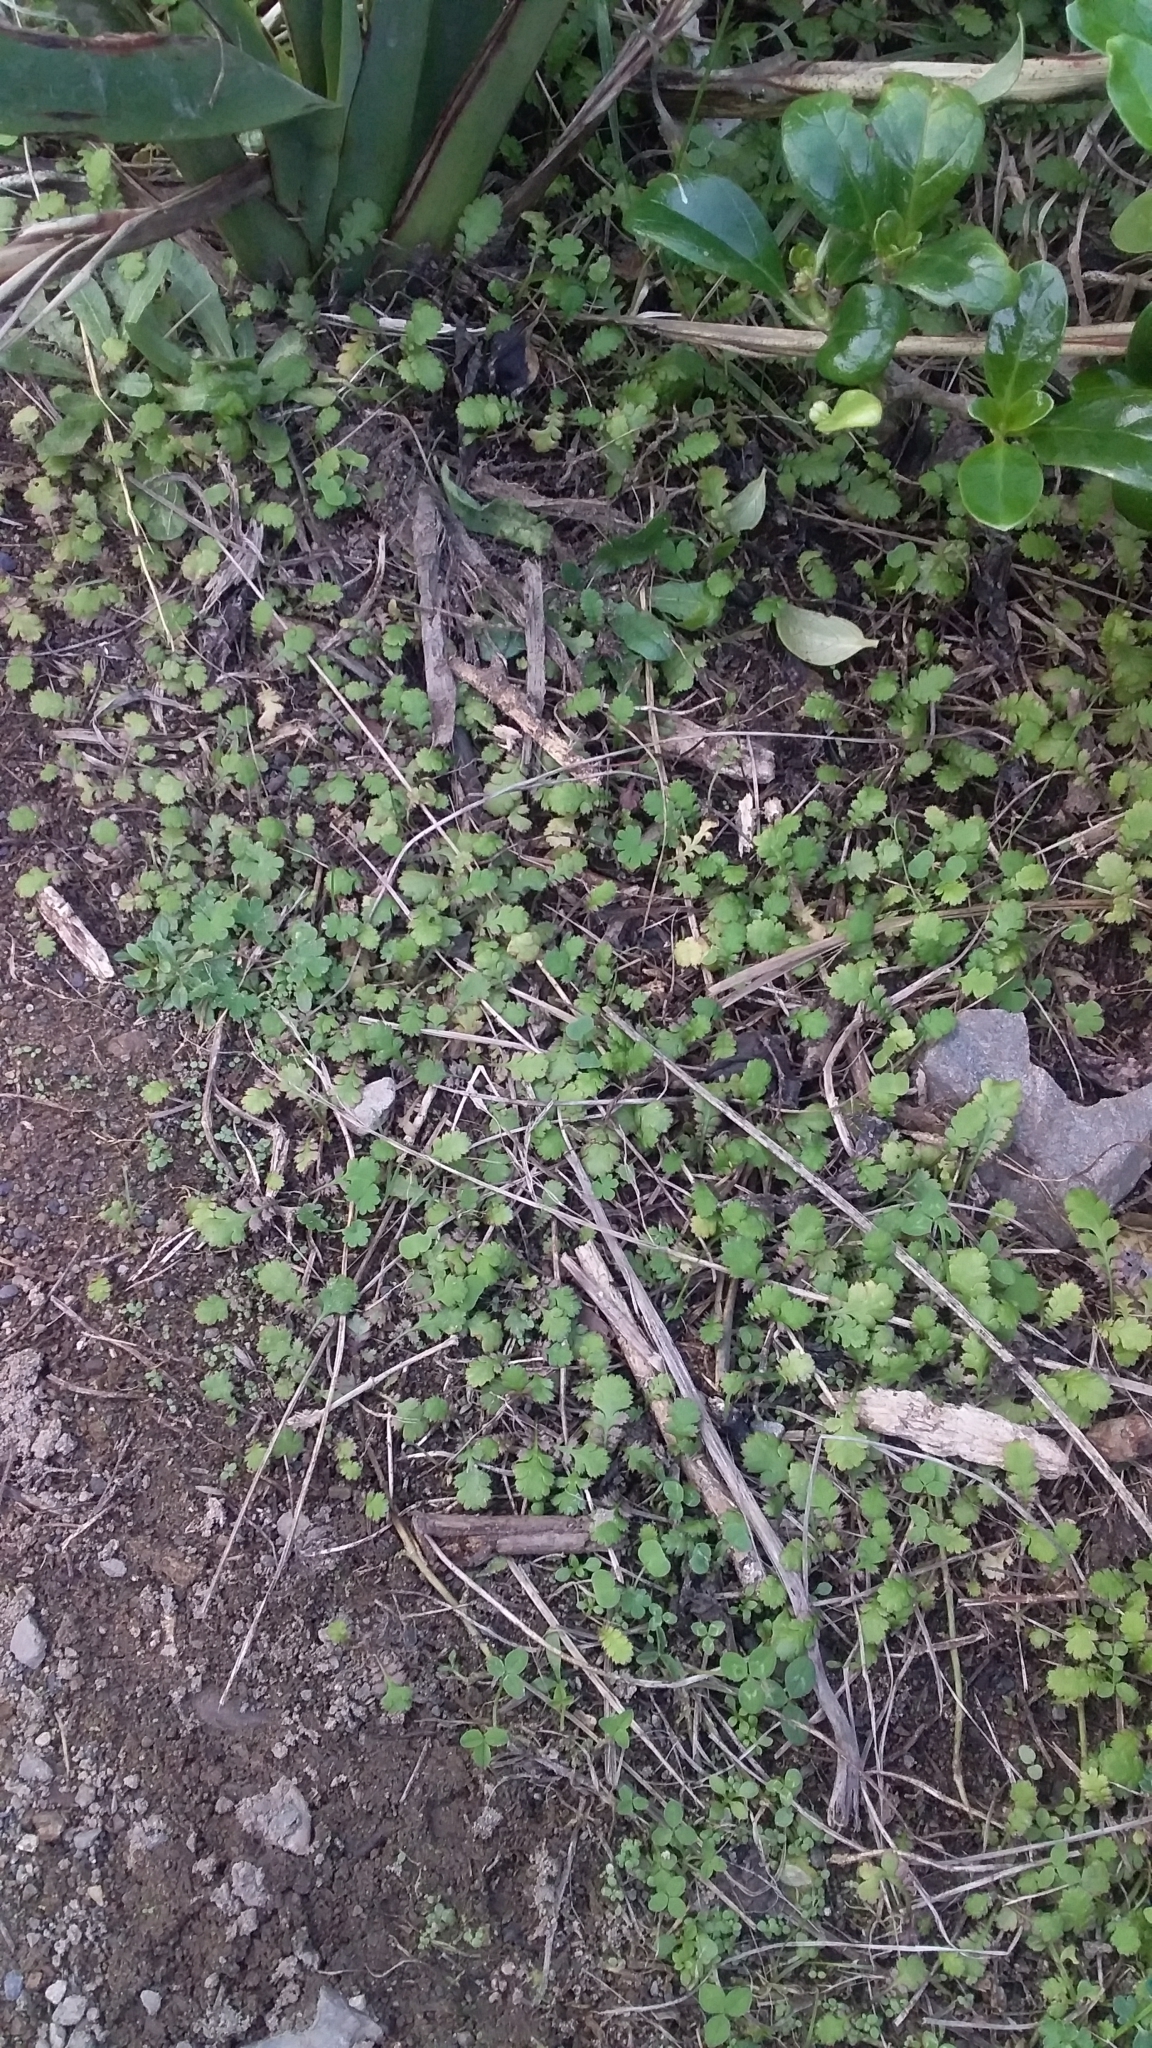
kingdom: Plantae
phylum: Tracheophyta
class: Magnoliopsida
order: Asterales
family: Asteraceae
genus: Leptinella
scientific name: Leptinella squalida
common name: New zealand brass-buttons
